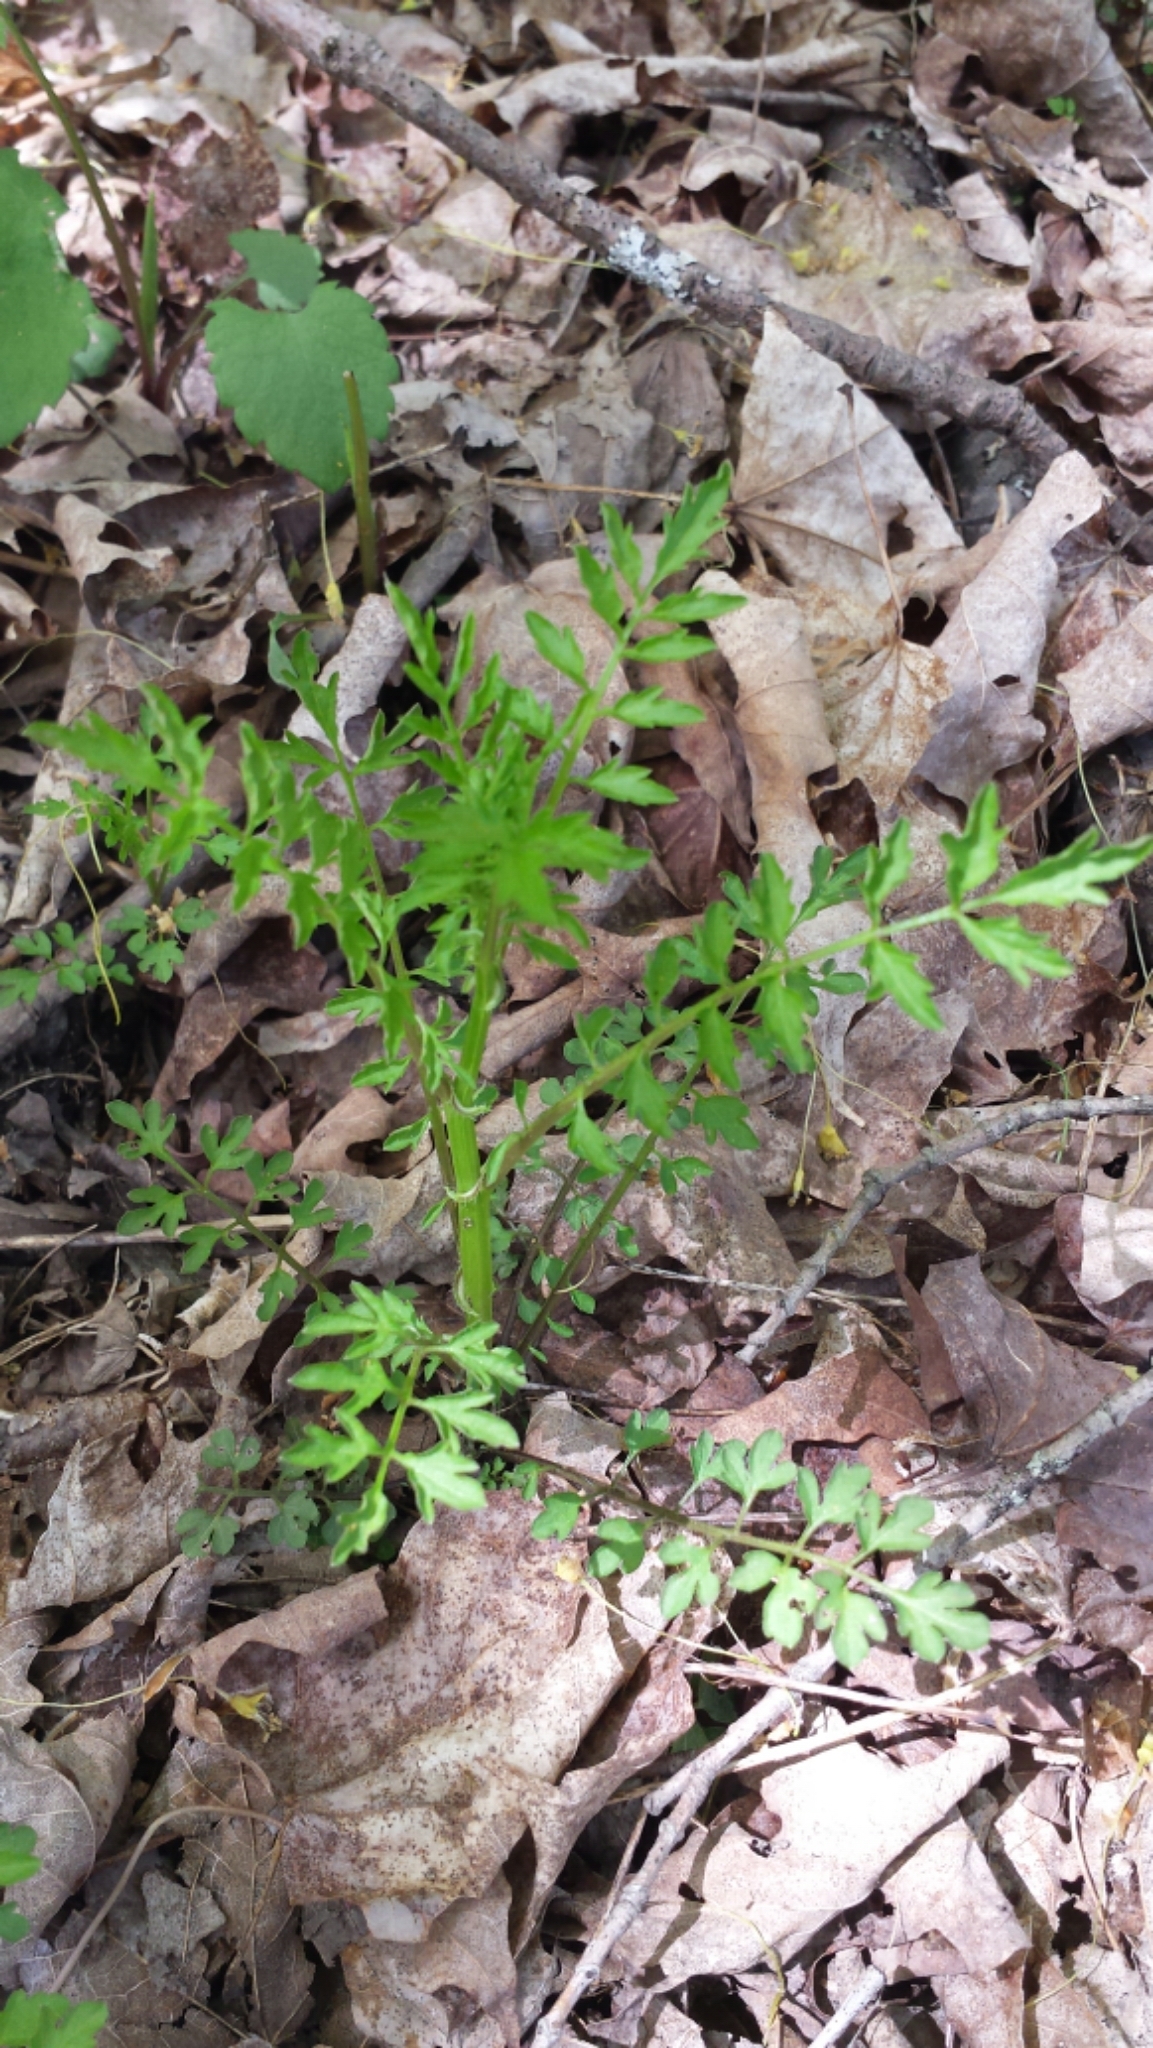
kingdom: Plantae
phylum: Tracheophyta
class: Magnoliopsida
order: Brassicales
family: Brassicaceae
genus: Cardamine
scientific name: Cardamine impatiens
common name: Narrow-leaved bitter-cress
